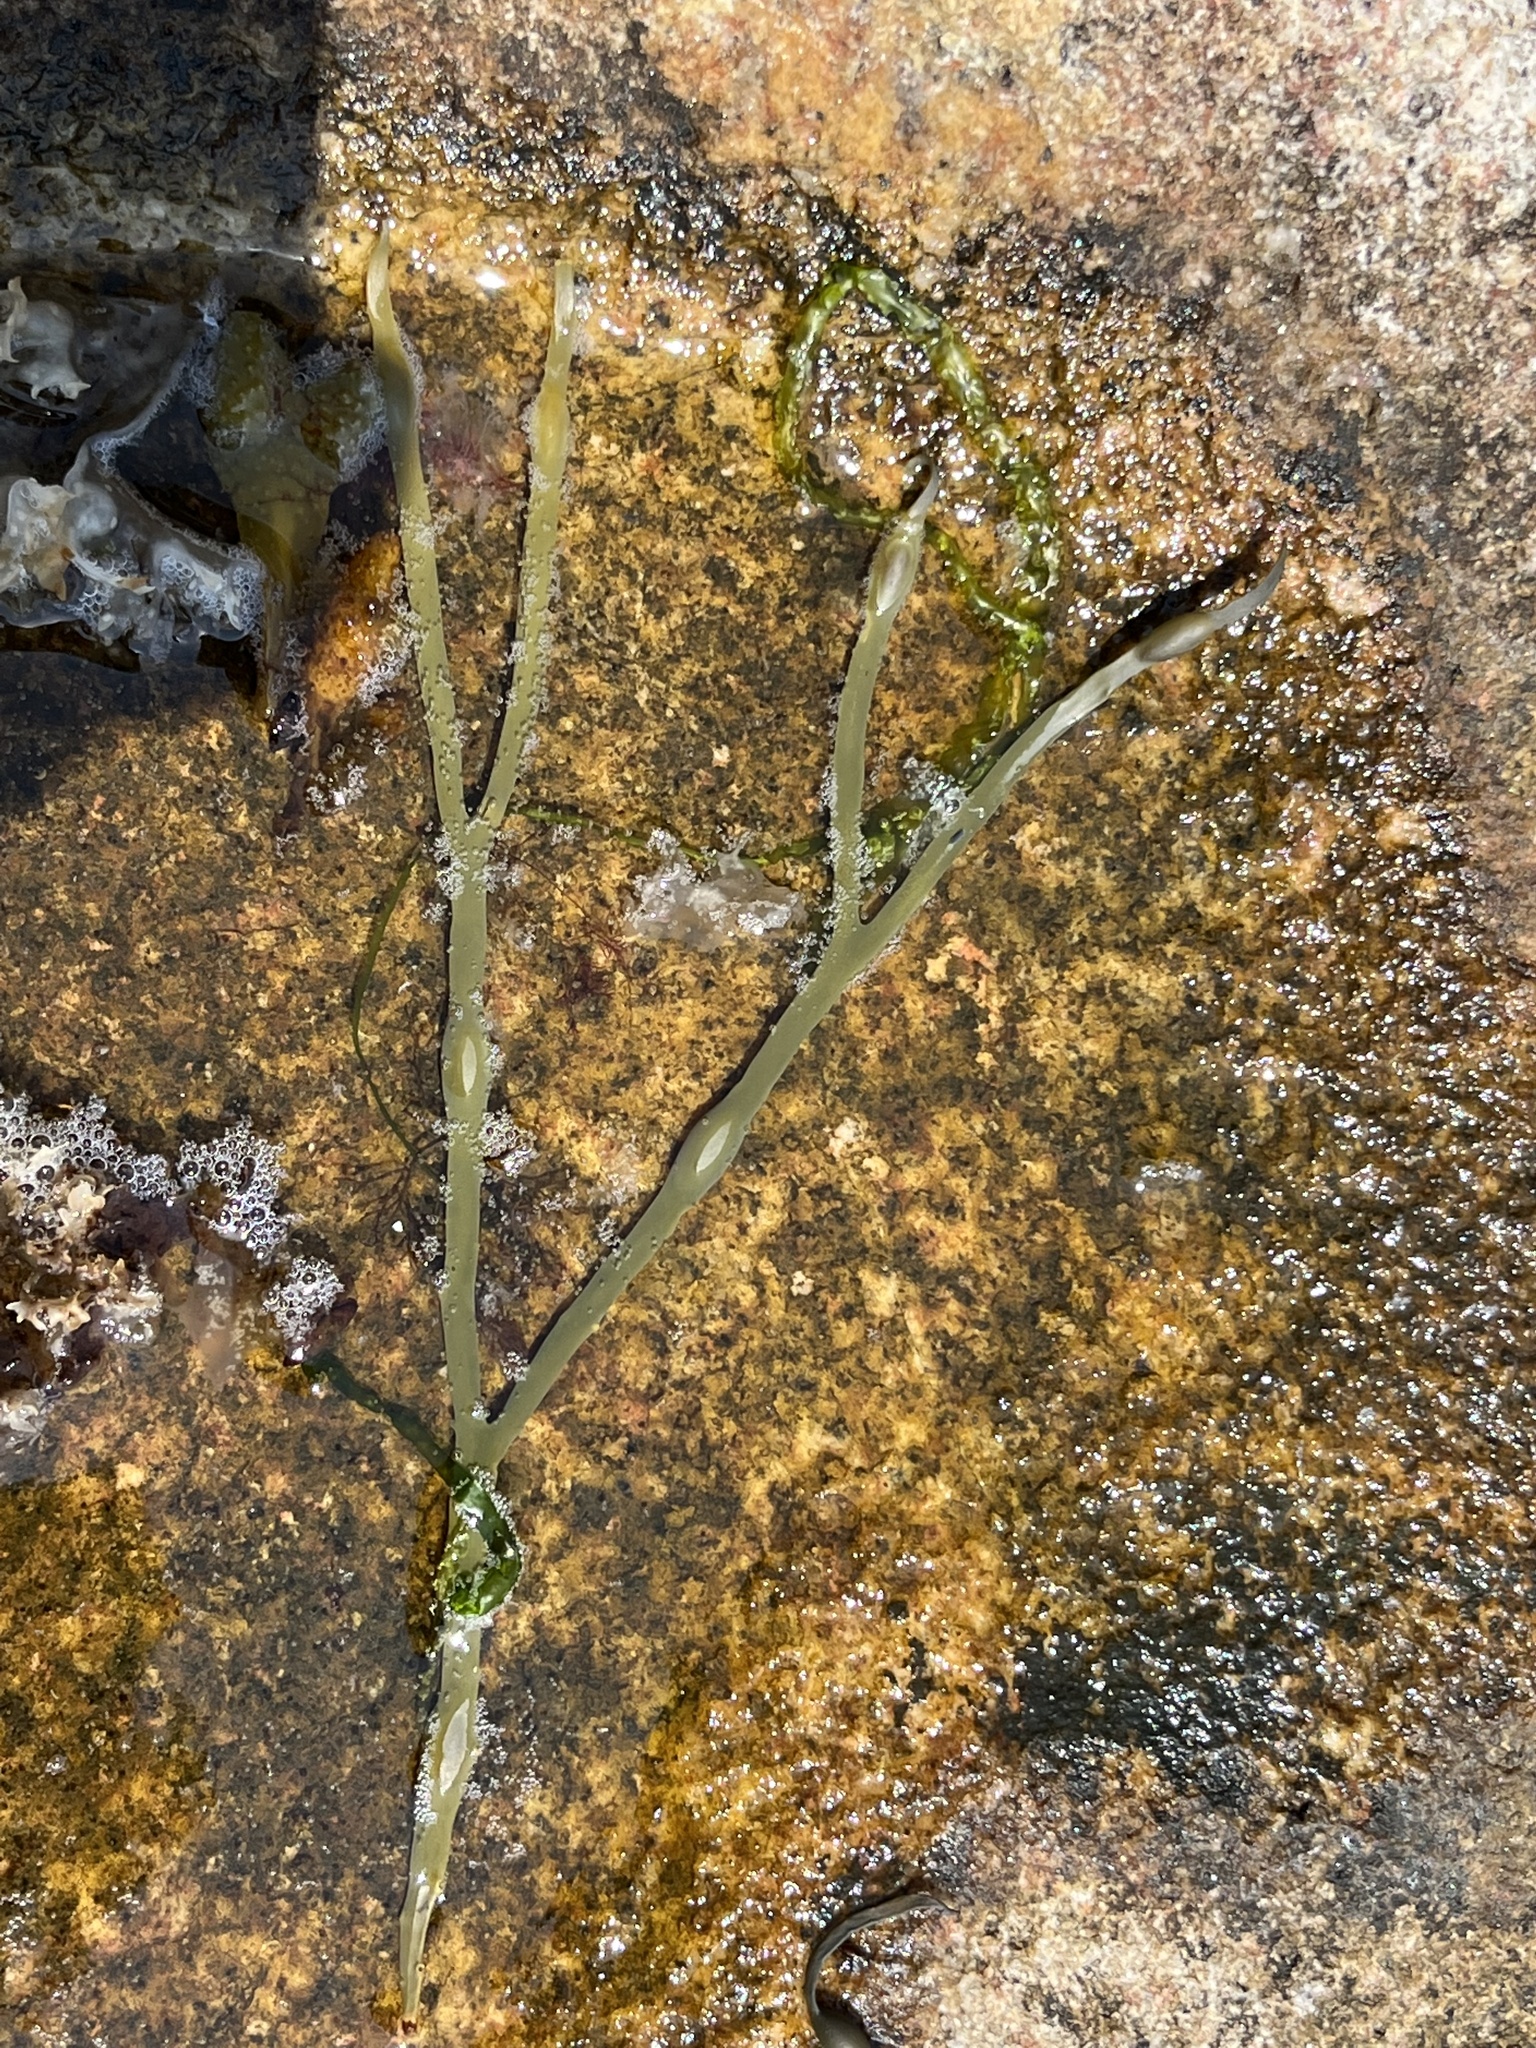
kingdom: Chromista
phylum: Ochrophyta
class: Phaeophyceae
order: Fucales
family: Fucaceae
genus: Ascophyllum
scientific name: Ascophyllum nodosum
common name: Knotted wrack
